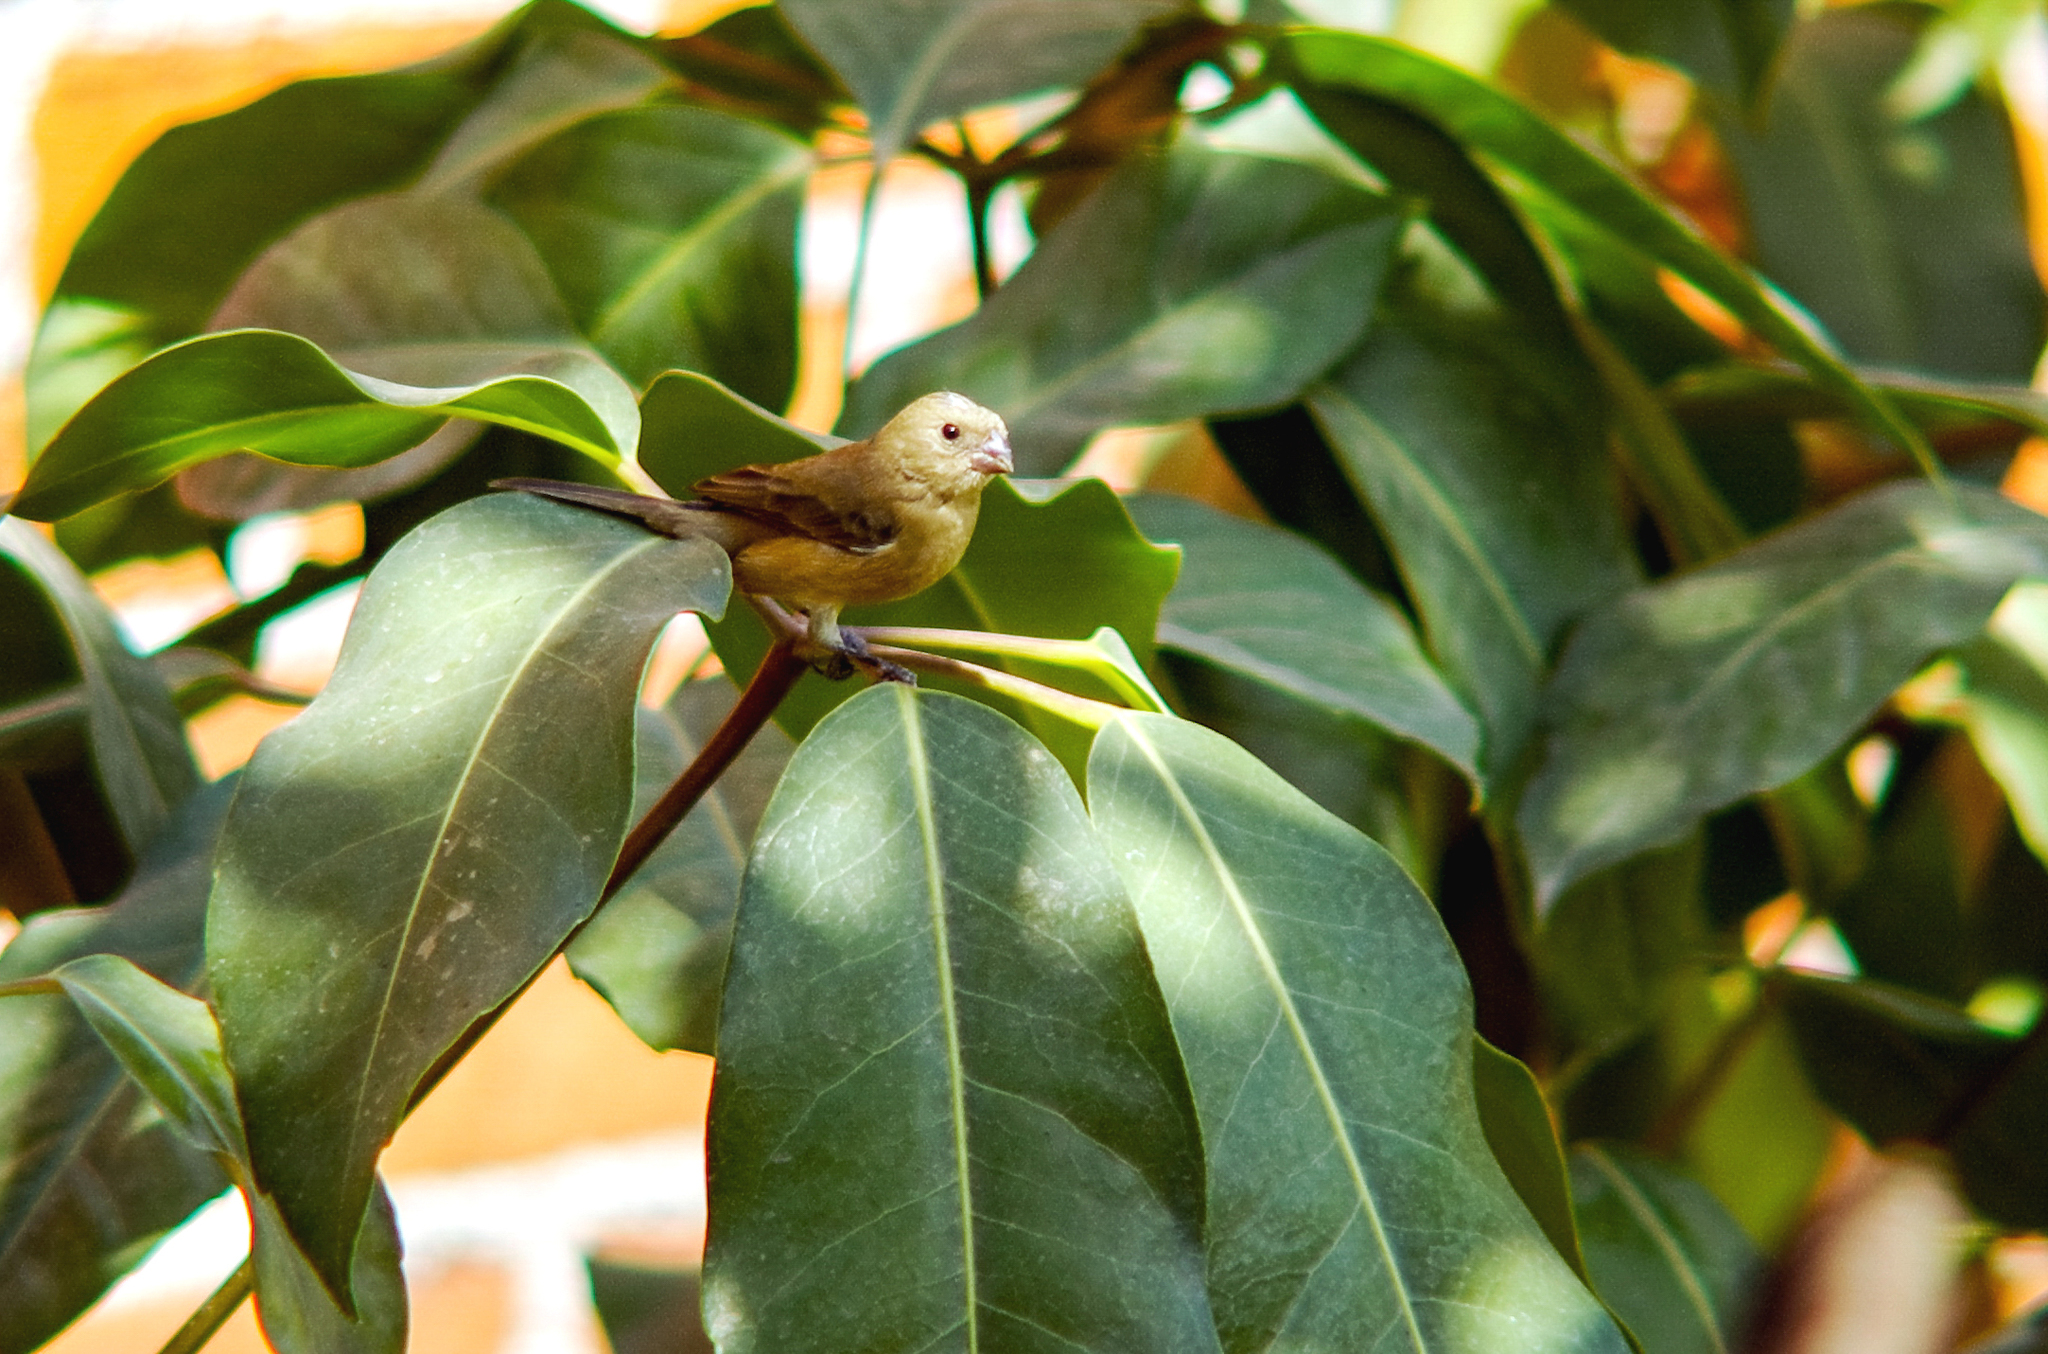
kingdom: Animalia
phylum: Chordata
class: Aves
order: Passeriformes
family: Thraupidae
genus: Sporophila
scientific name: Sporophila torqueola
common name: White-collared seedeater
